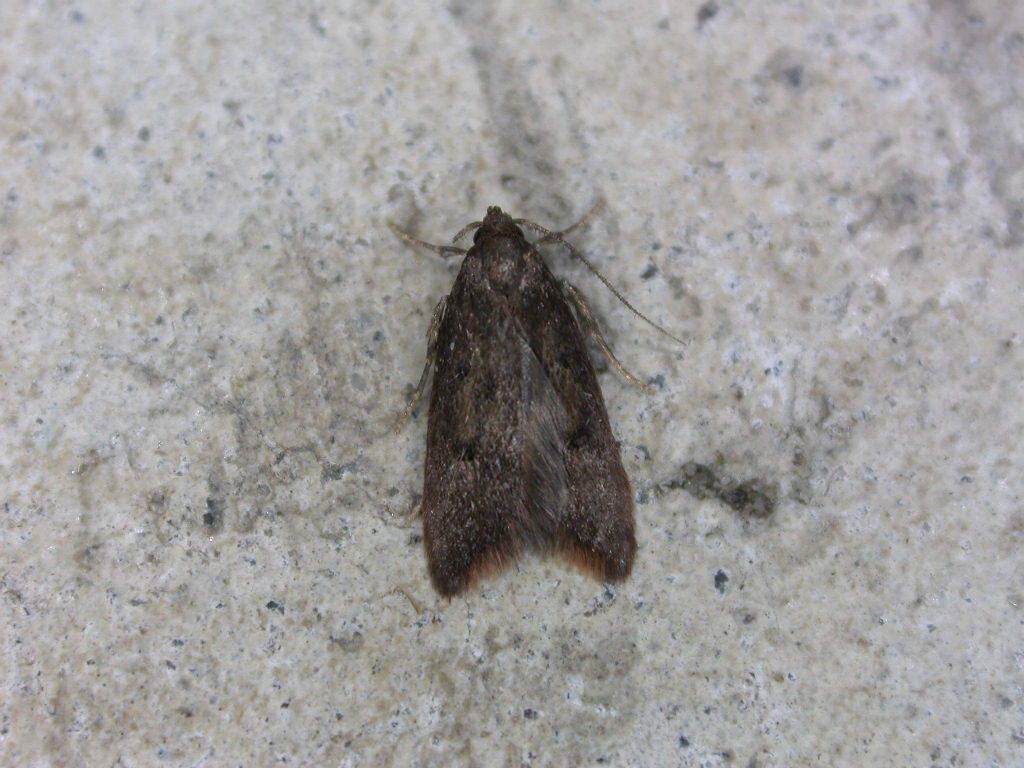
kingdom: Animalia
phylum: Arthropoda
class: Insecta
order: Lepidoptera
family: Oecophoridae
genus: Tachystola
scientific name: Tachystola acroxantha
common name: Ruddy streak
